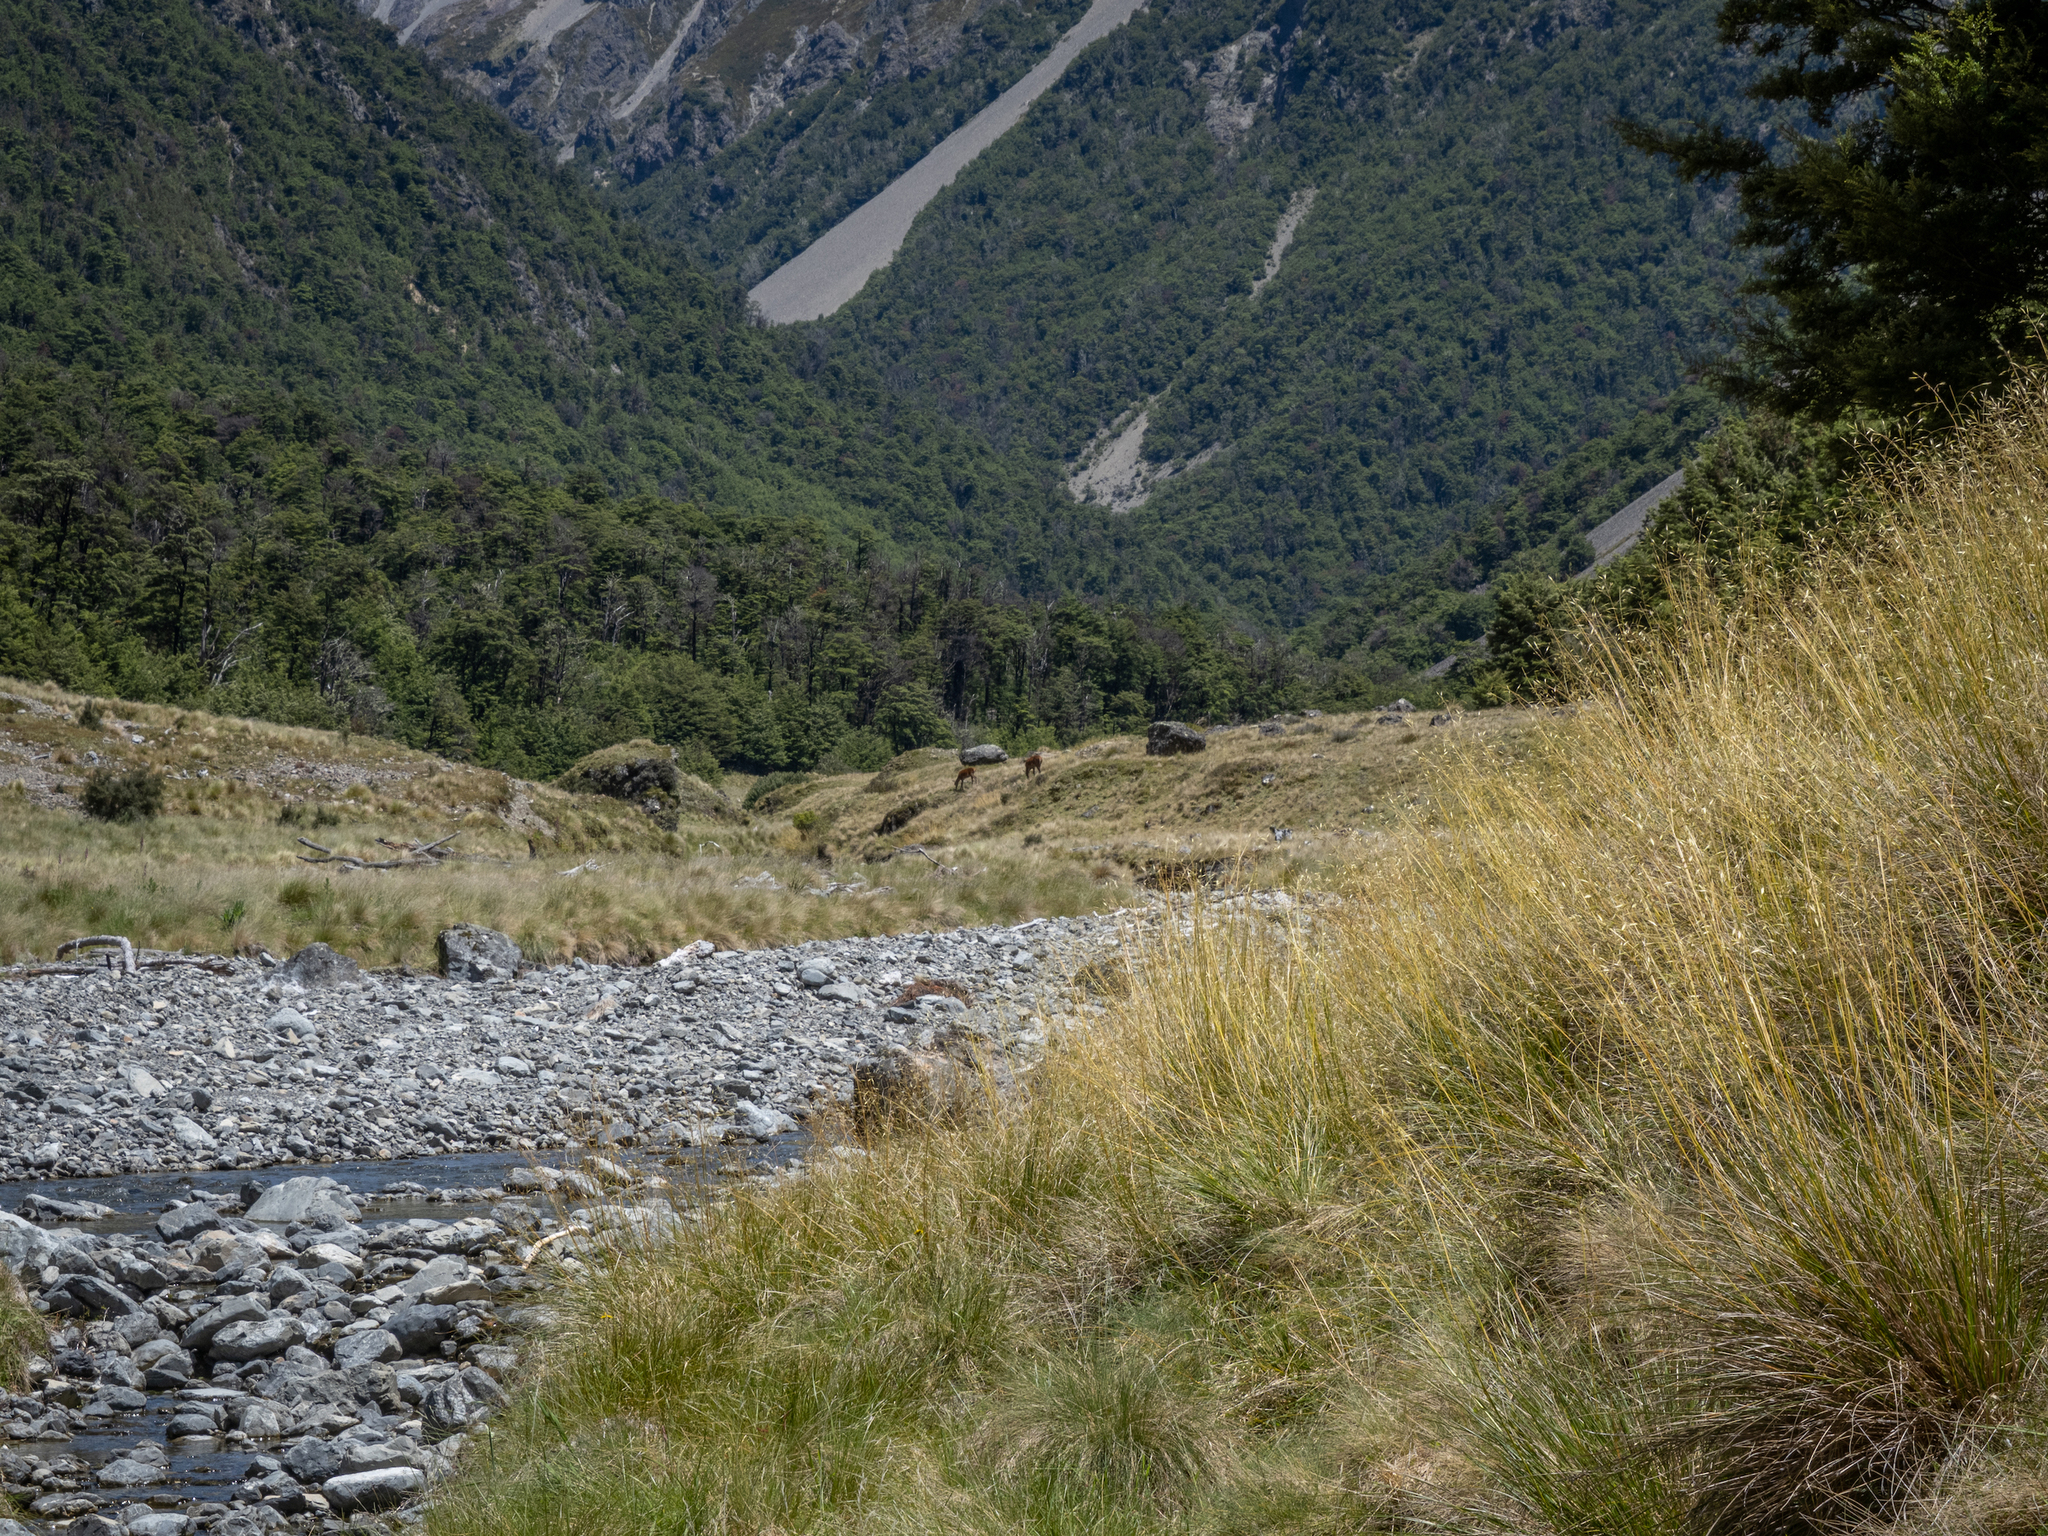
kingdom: Animalia
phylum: Chordata
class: Mammalia
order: Artiodactyla
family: Cervidae
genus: Cervus
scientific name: Cervus elaphus
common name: Red deer
